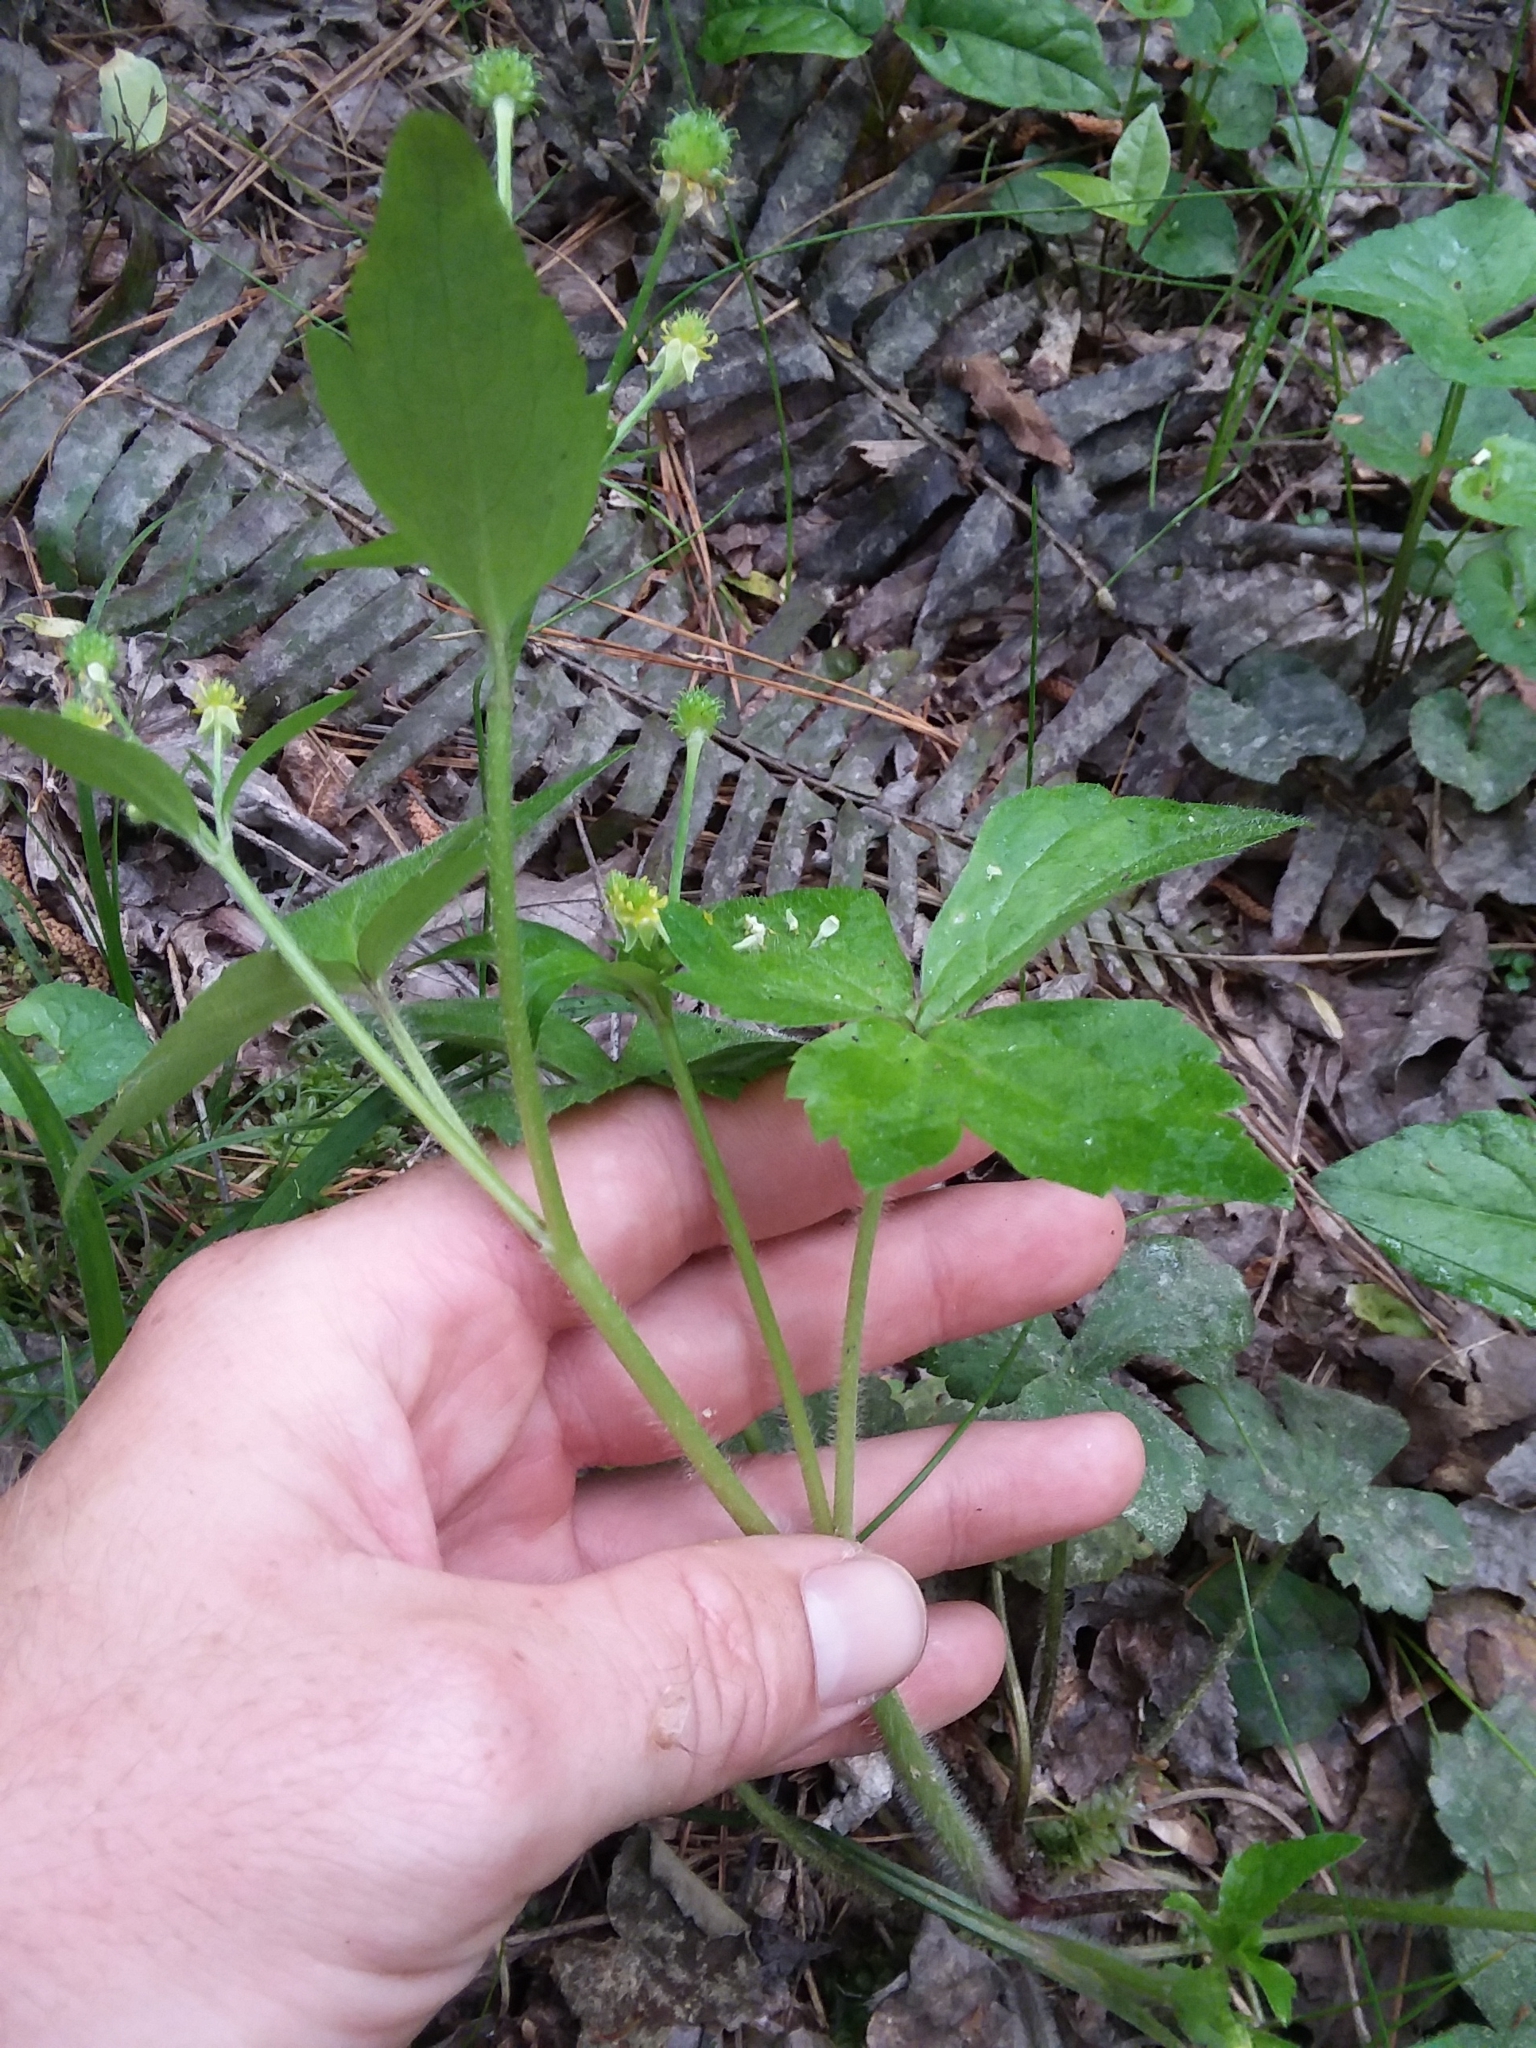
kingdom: Plantae
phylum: Tracheophyta
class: Magnoliopsida
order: Ranunculales
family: Ranunculaceae
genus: Ranunculus
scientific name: Ranunculus recurvatus
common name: Blisterwort
